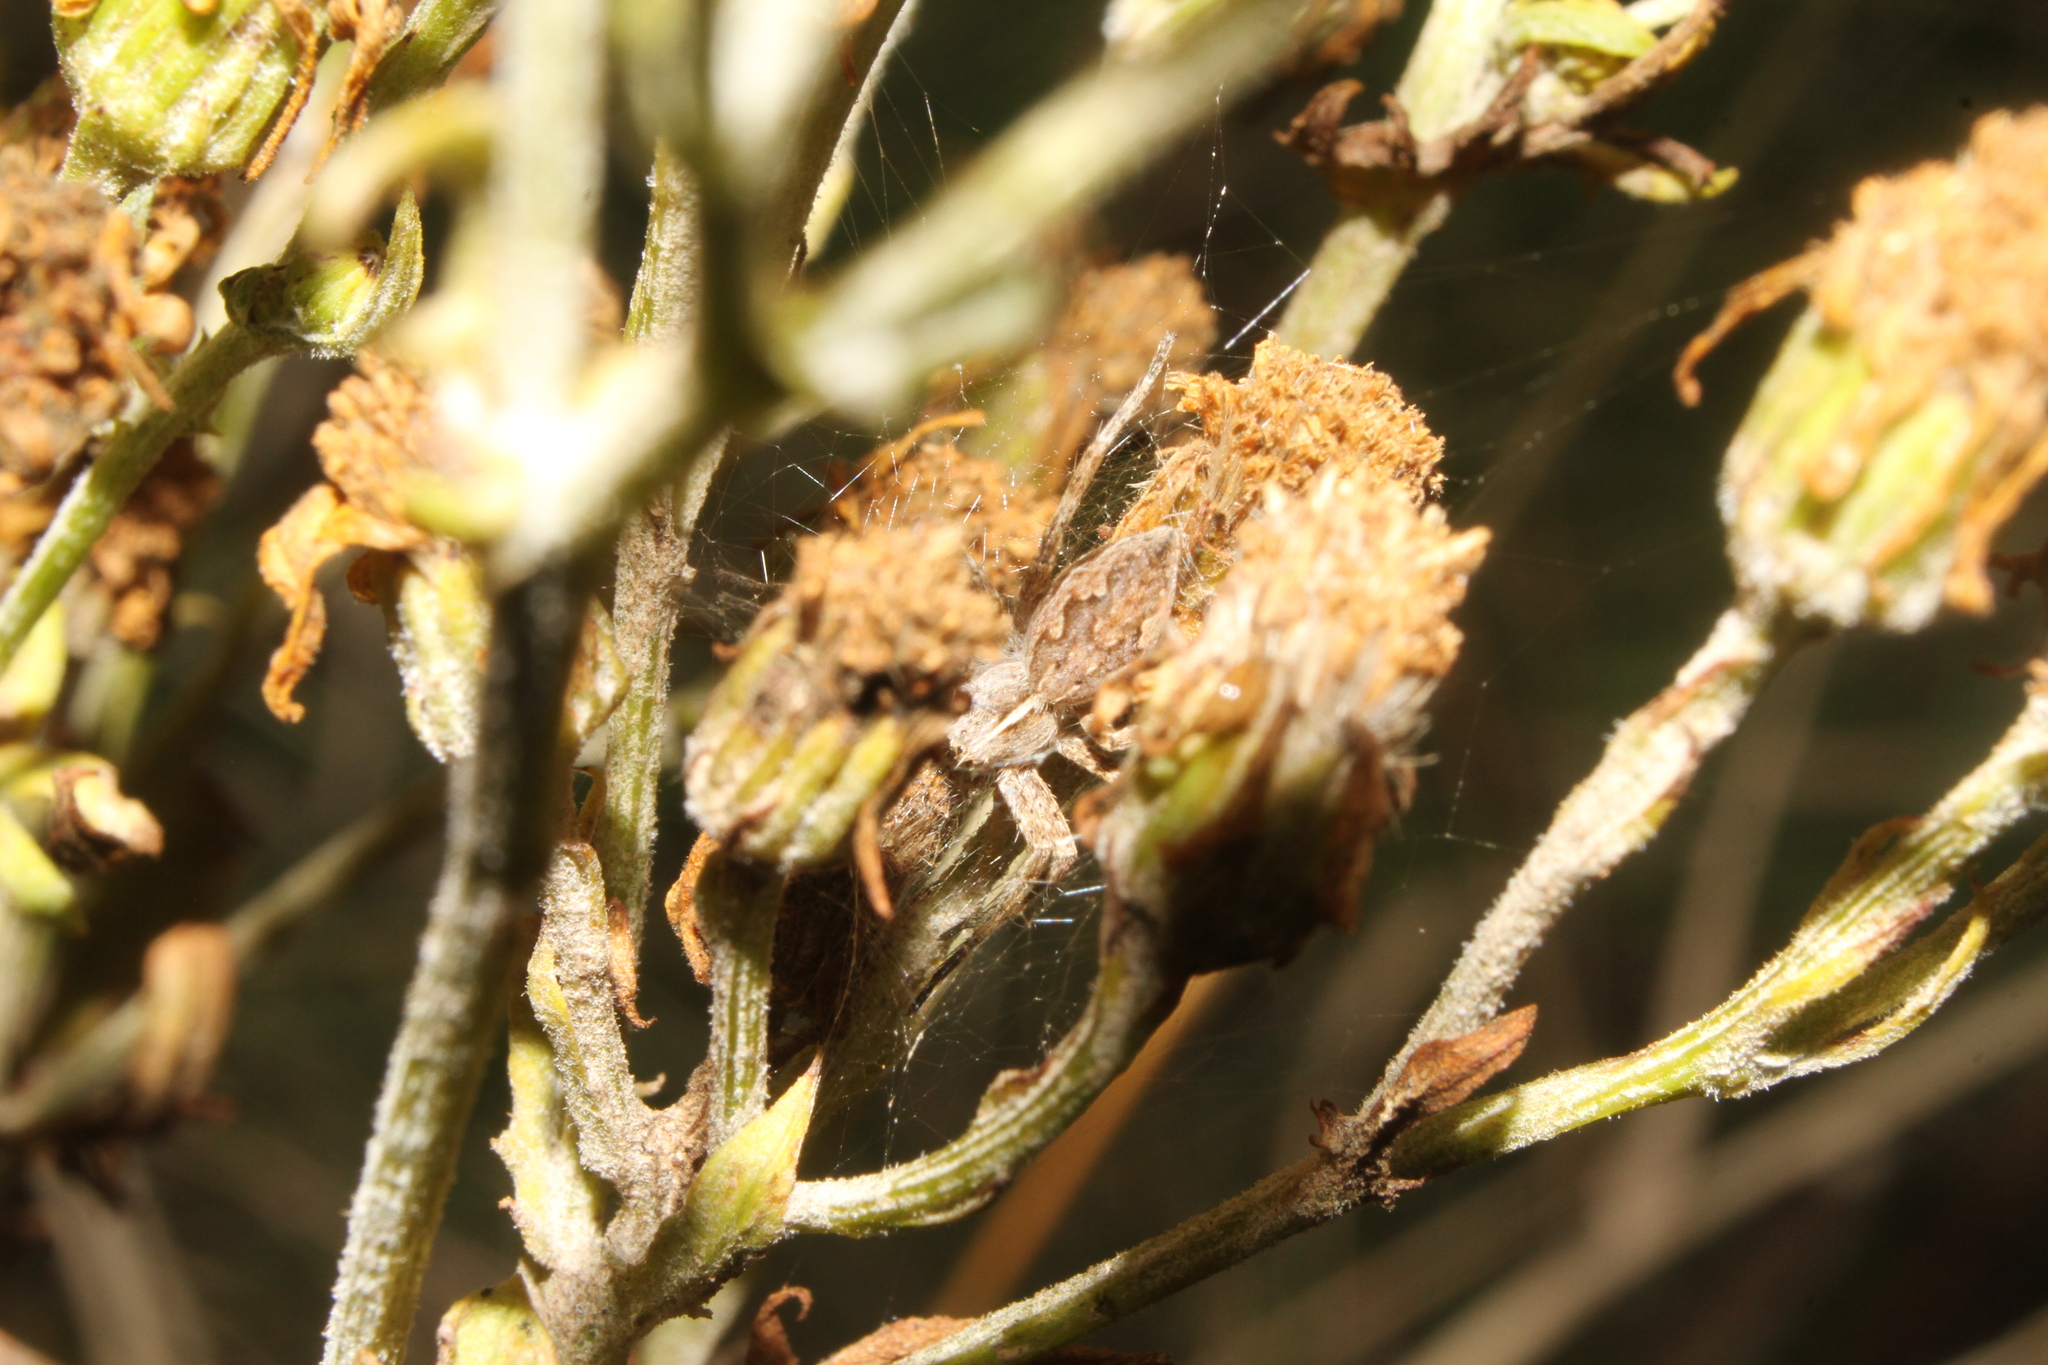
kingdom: Animalia
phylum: Arthropoda
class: Arachnida
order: Araneae
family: Pisauridae
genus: Pisaura
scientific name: Pisaura mirabilis
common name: Tent spider
